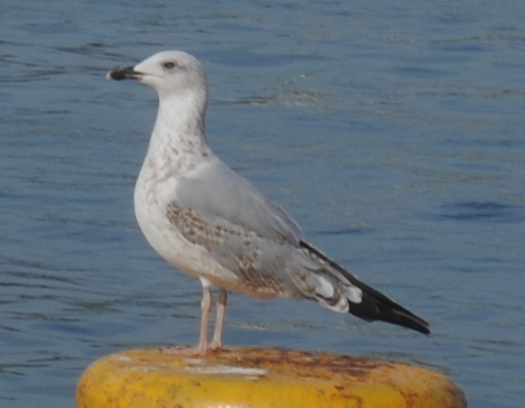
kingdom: Animalia
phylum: Chordata
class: Aves
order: Charadriiformes
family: Laridae
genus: Larus
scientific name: Larus michahellis
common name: Yellow-legged gull
